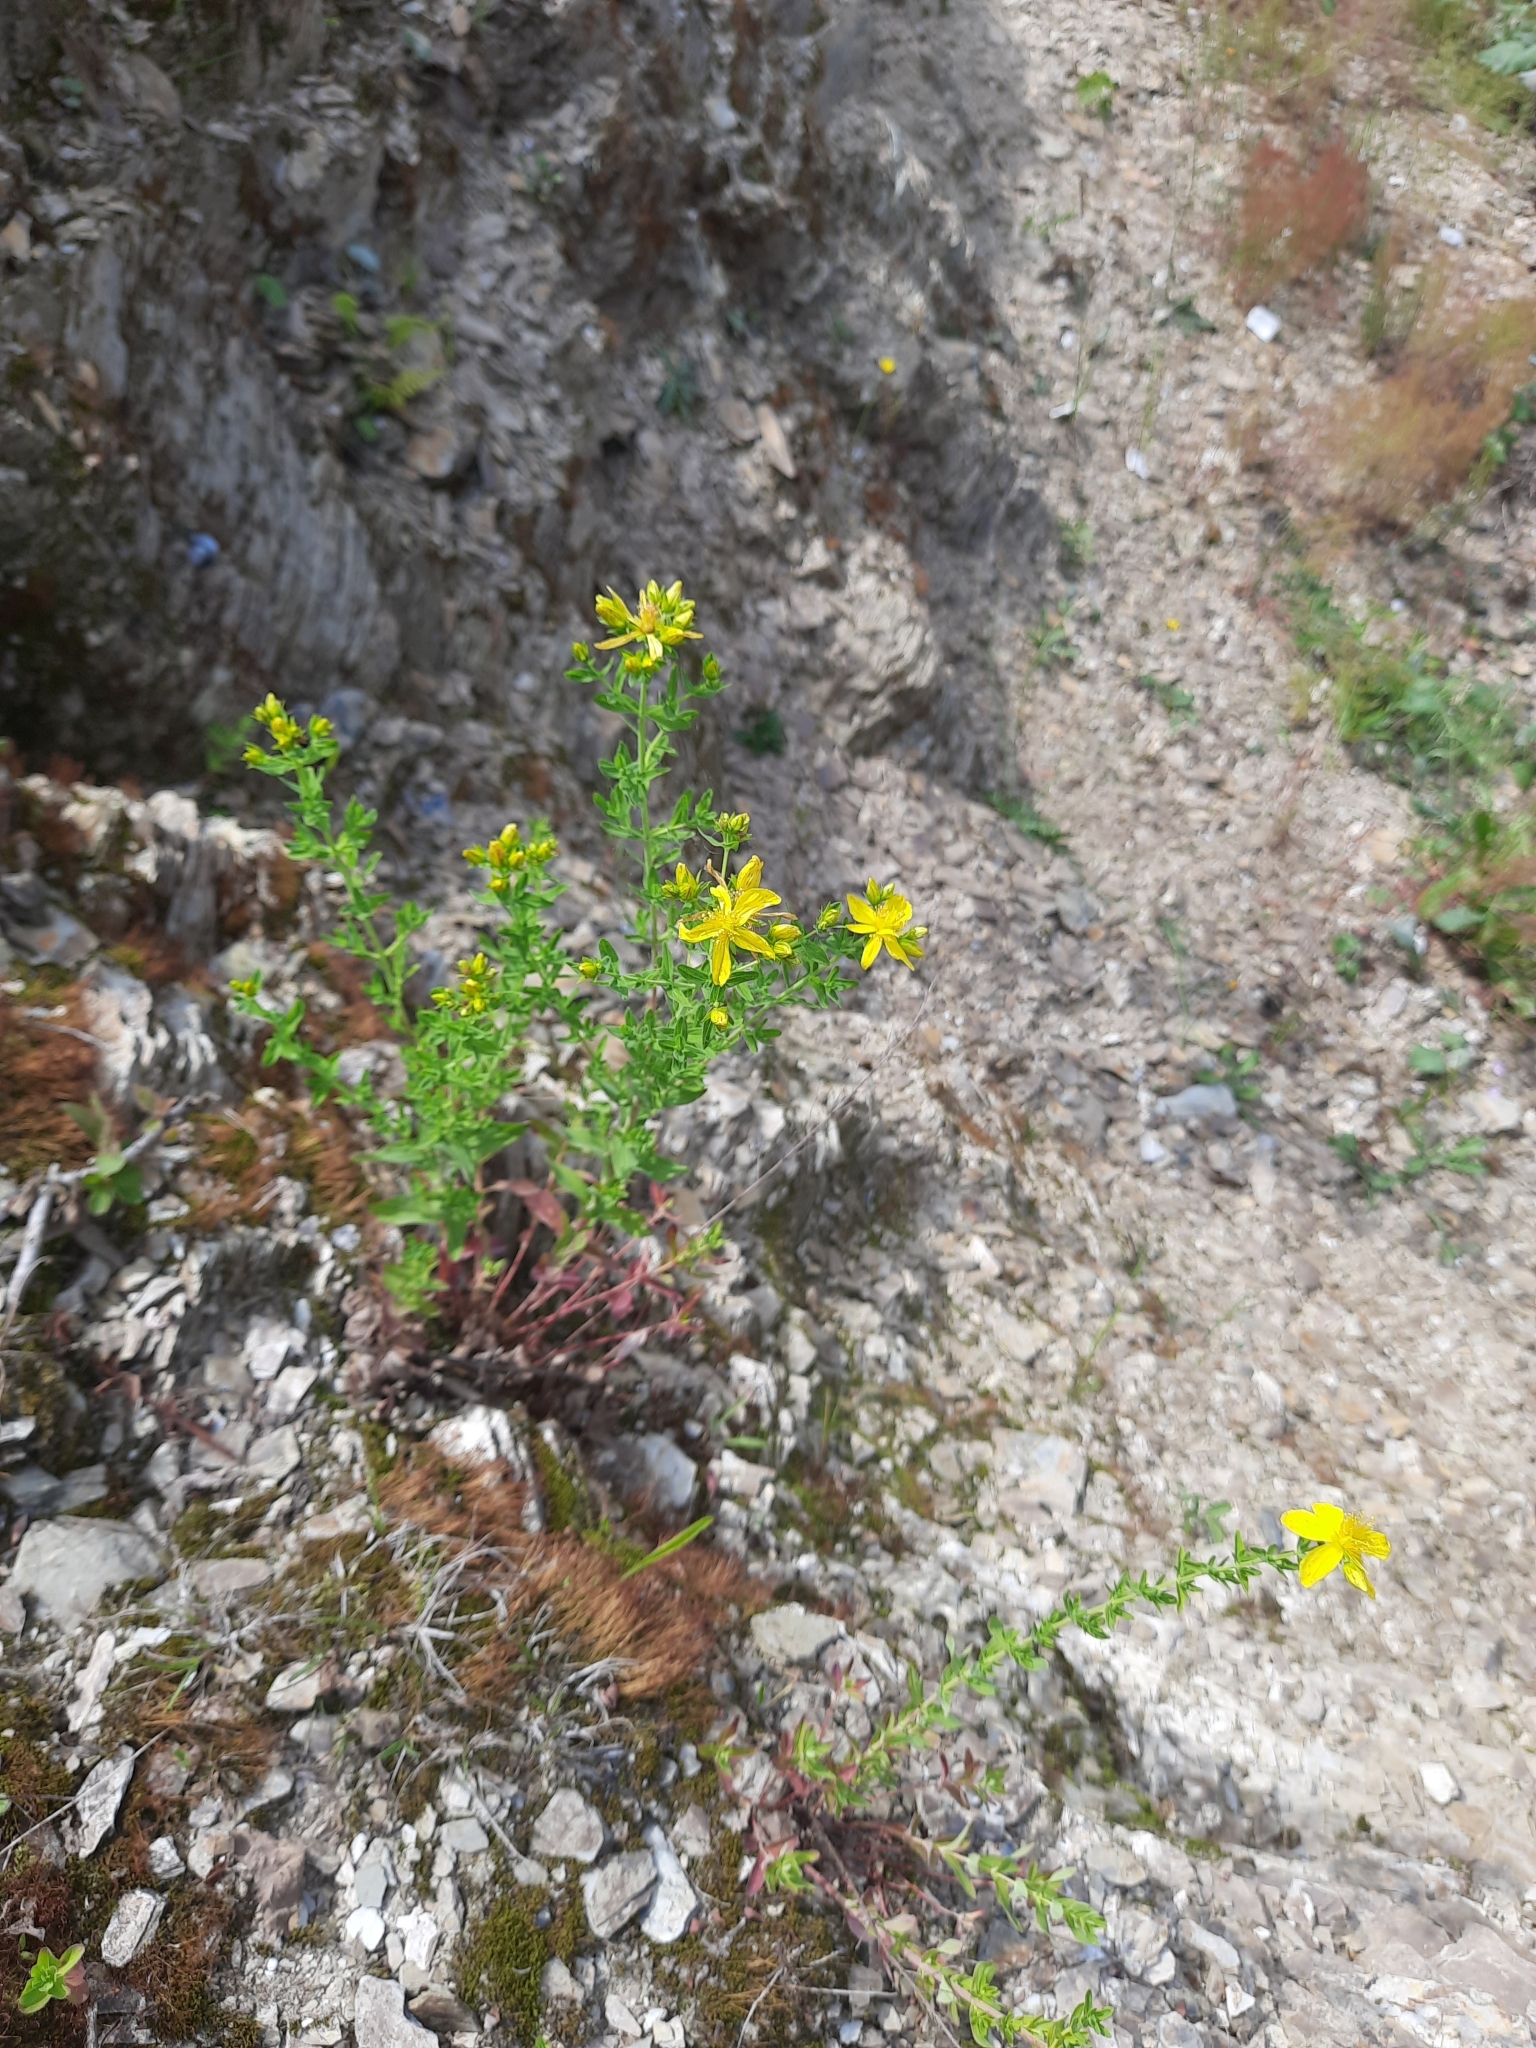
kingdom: Plantae
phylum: Tracheophyta
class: Magnoliopsida
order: Malpighiales
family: Hypericaceae
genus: Hypericum
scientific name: Hypericum perforatum
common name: Common st. johnswort
